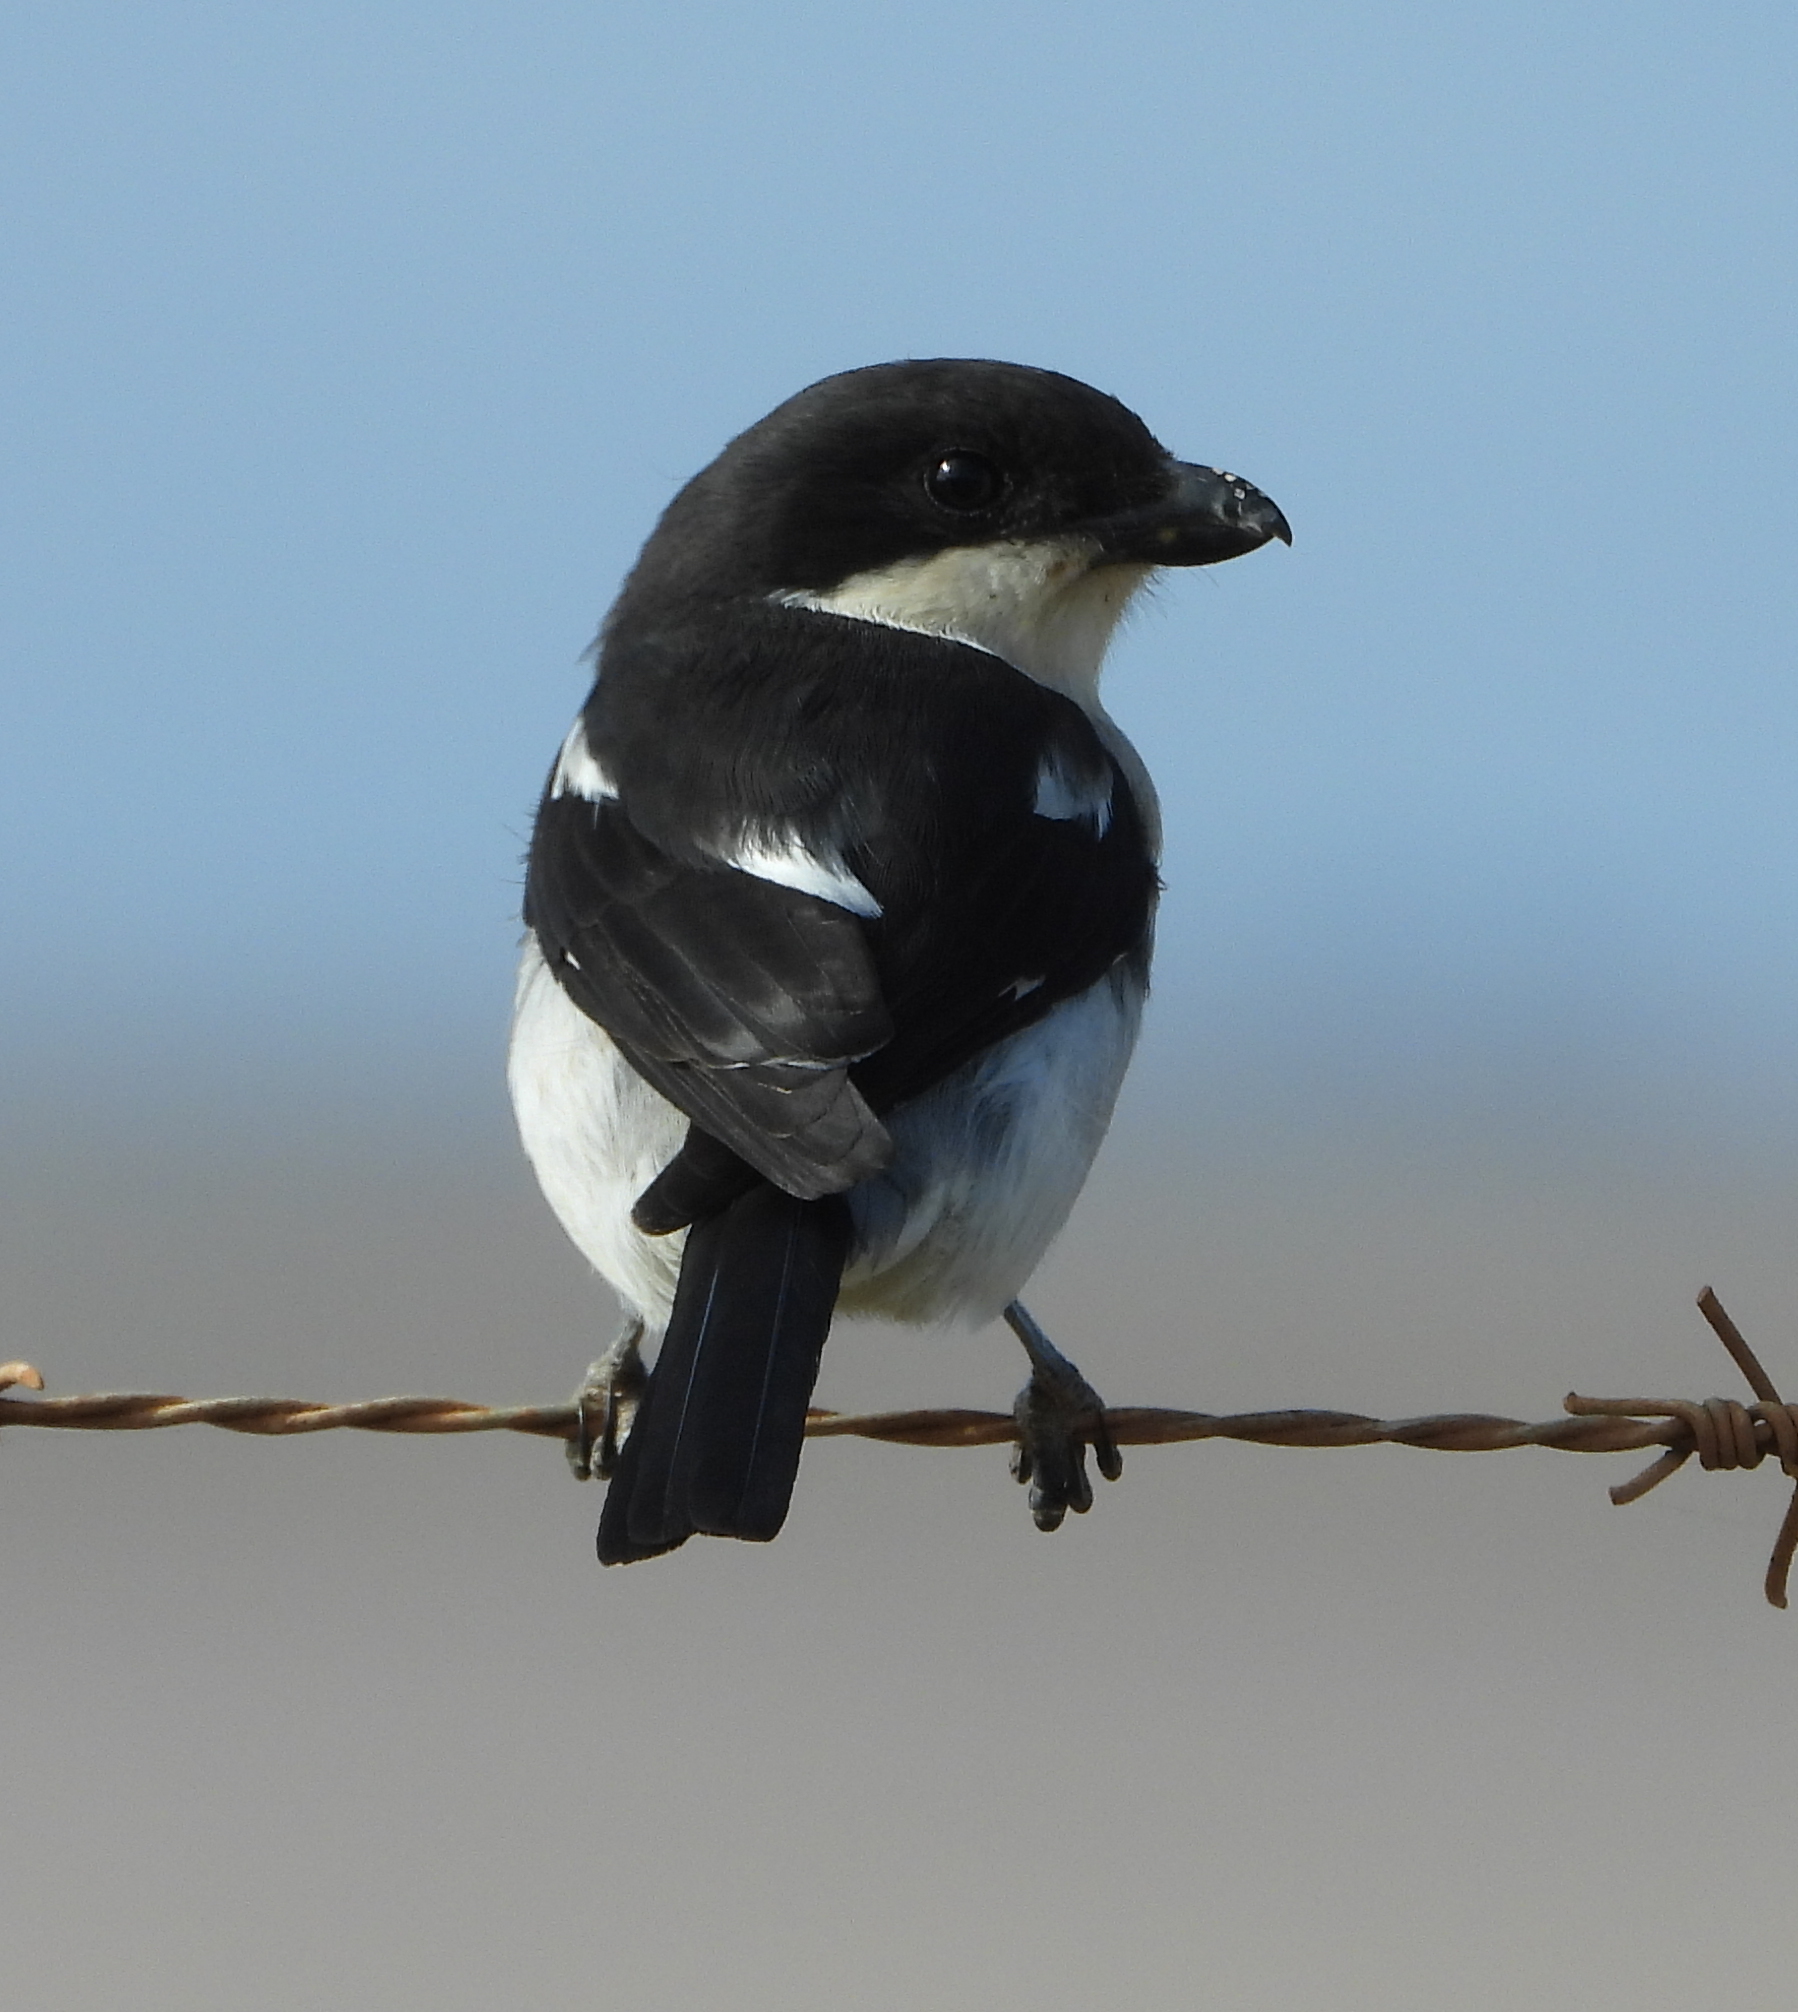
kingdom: Animalia
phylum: Chordata
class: Aves
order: Passeriformes
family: Laniidae
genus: Lanius
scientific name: Lanius collaris
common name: Southern fiscal
